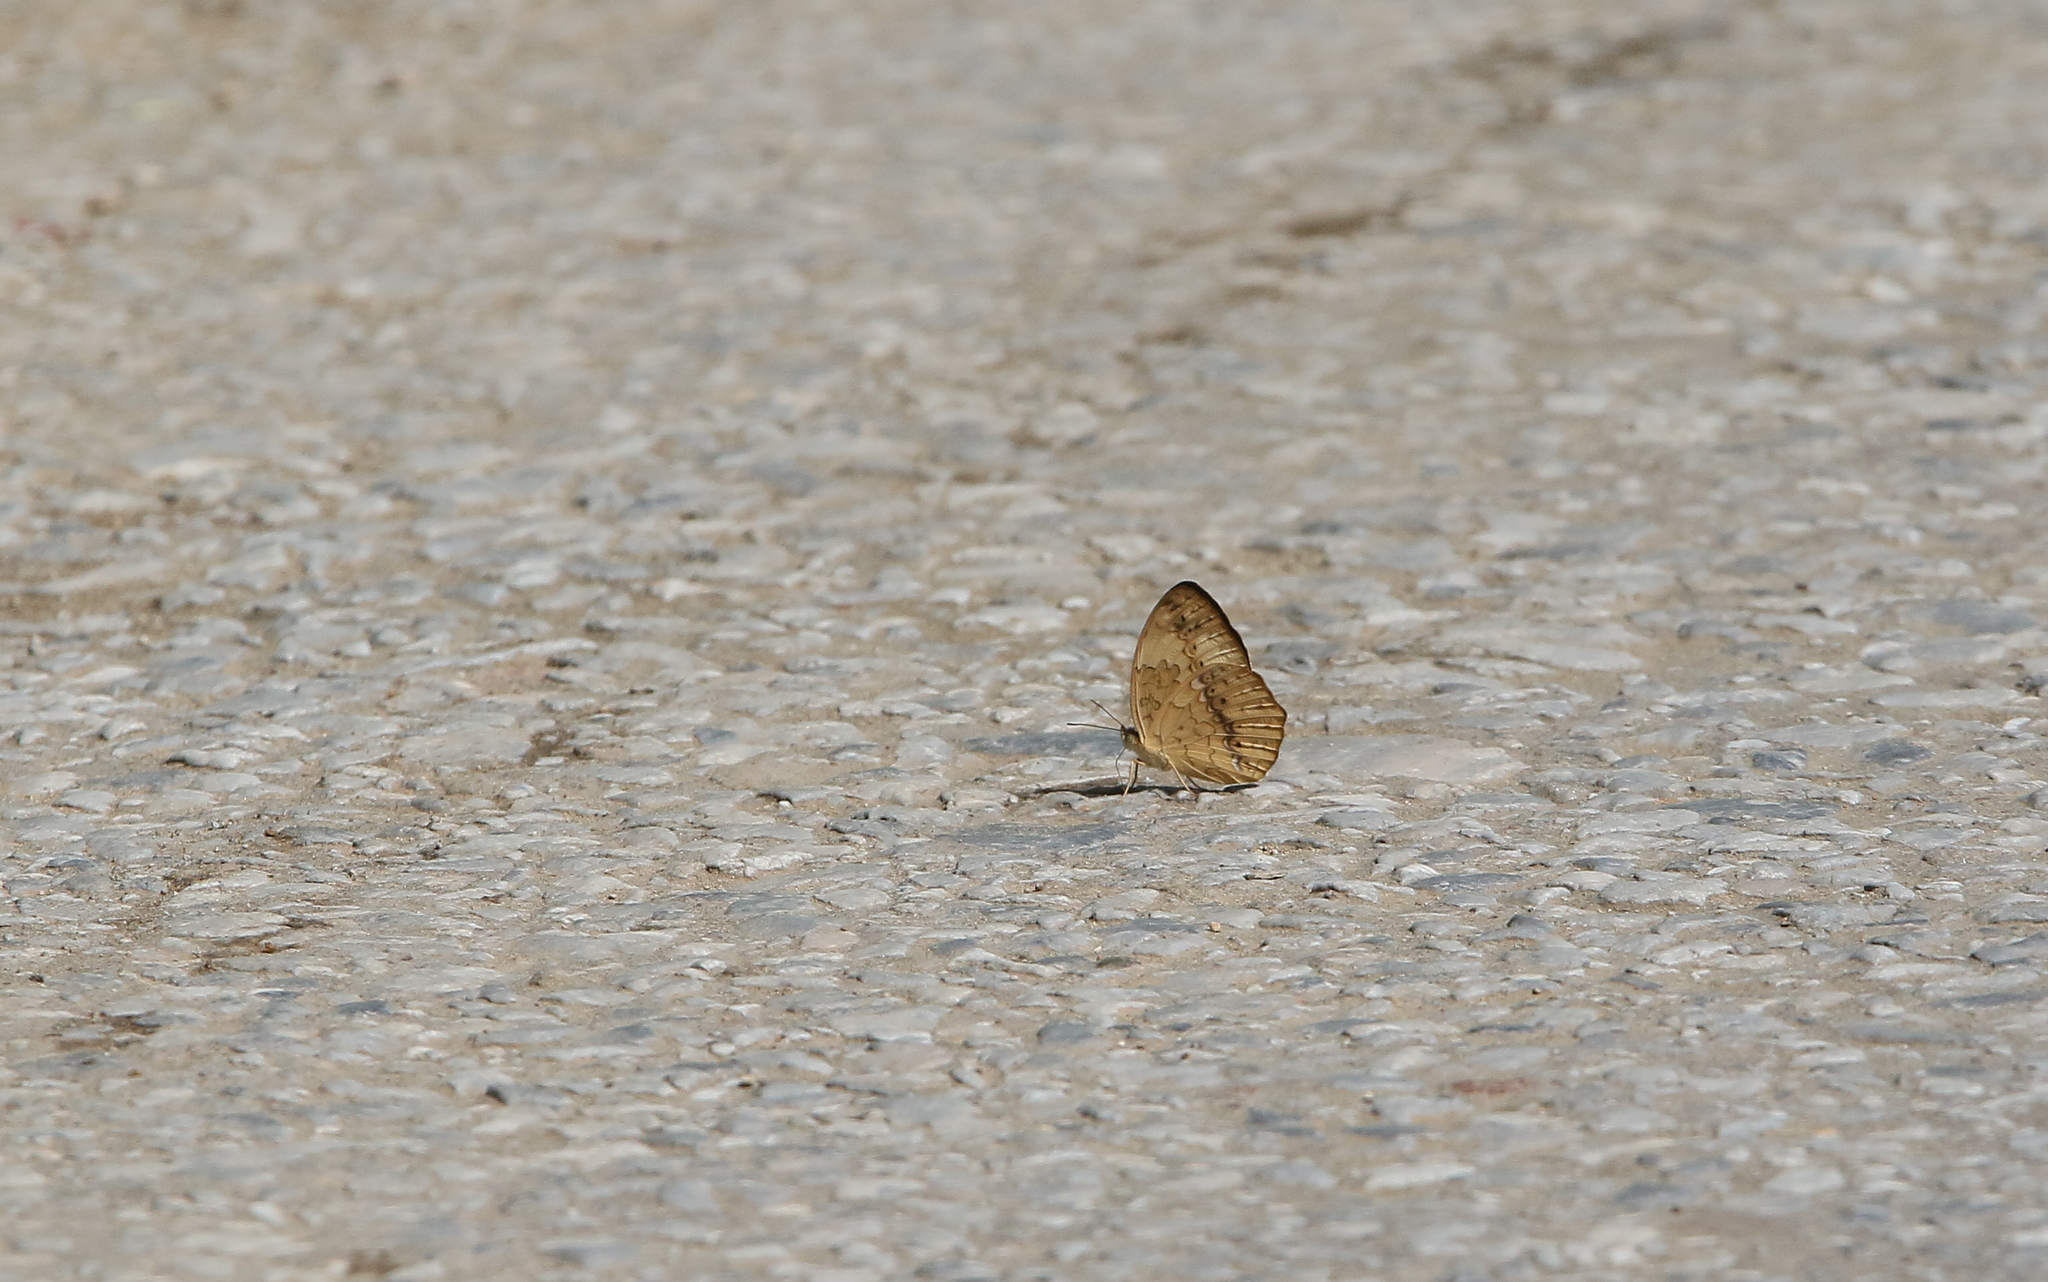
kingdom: Animalia
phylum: Arthropoda
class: Insecta
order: Lepidoptera
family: Nymphalidae
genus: Cupha
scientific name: Cupha erymanthis
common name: Rustic
